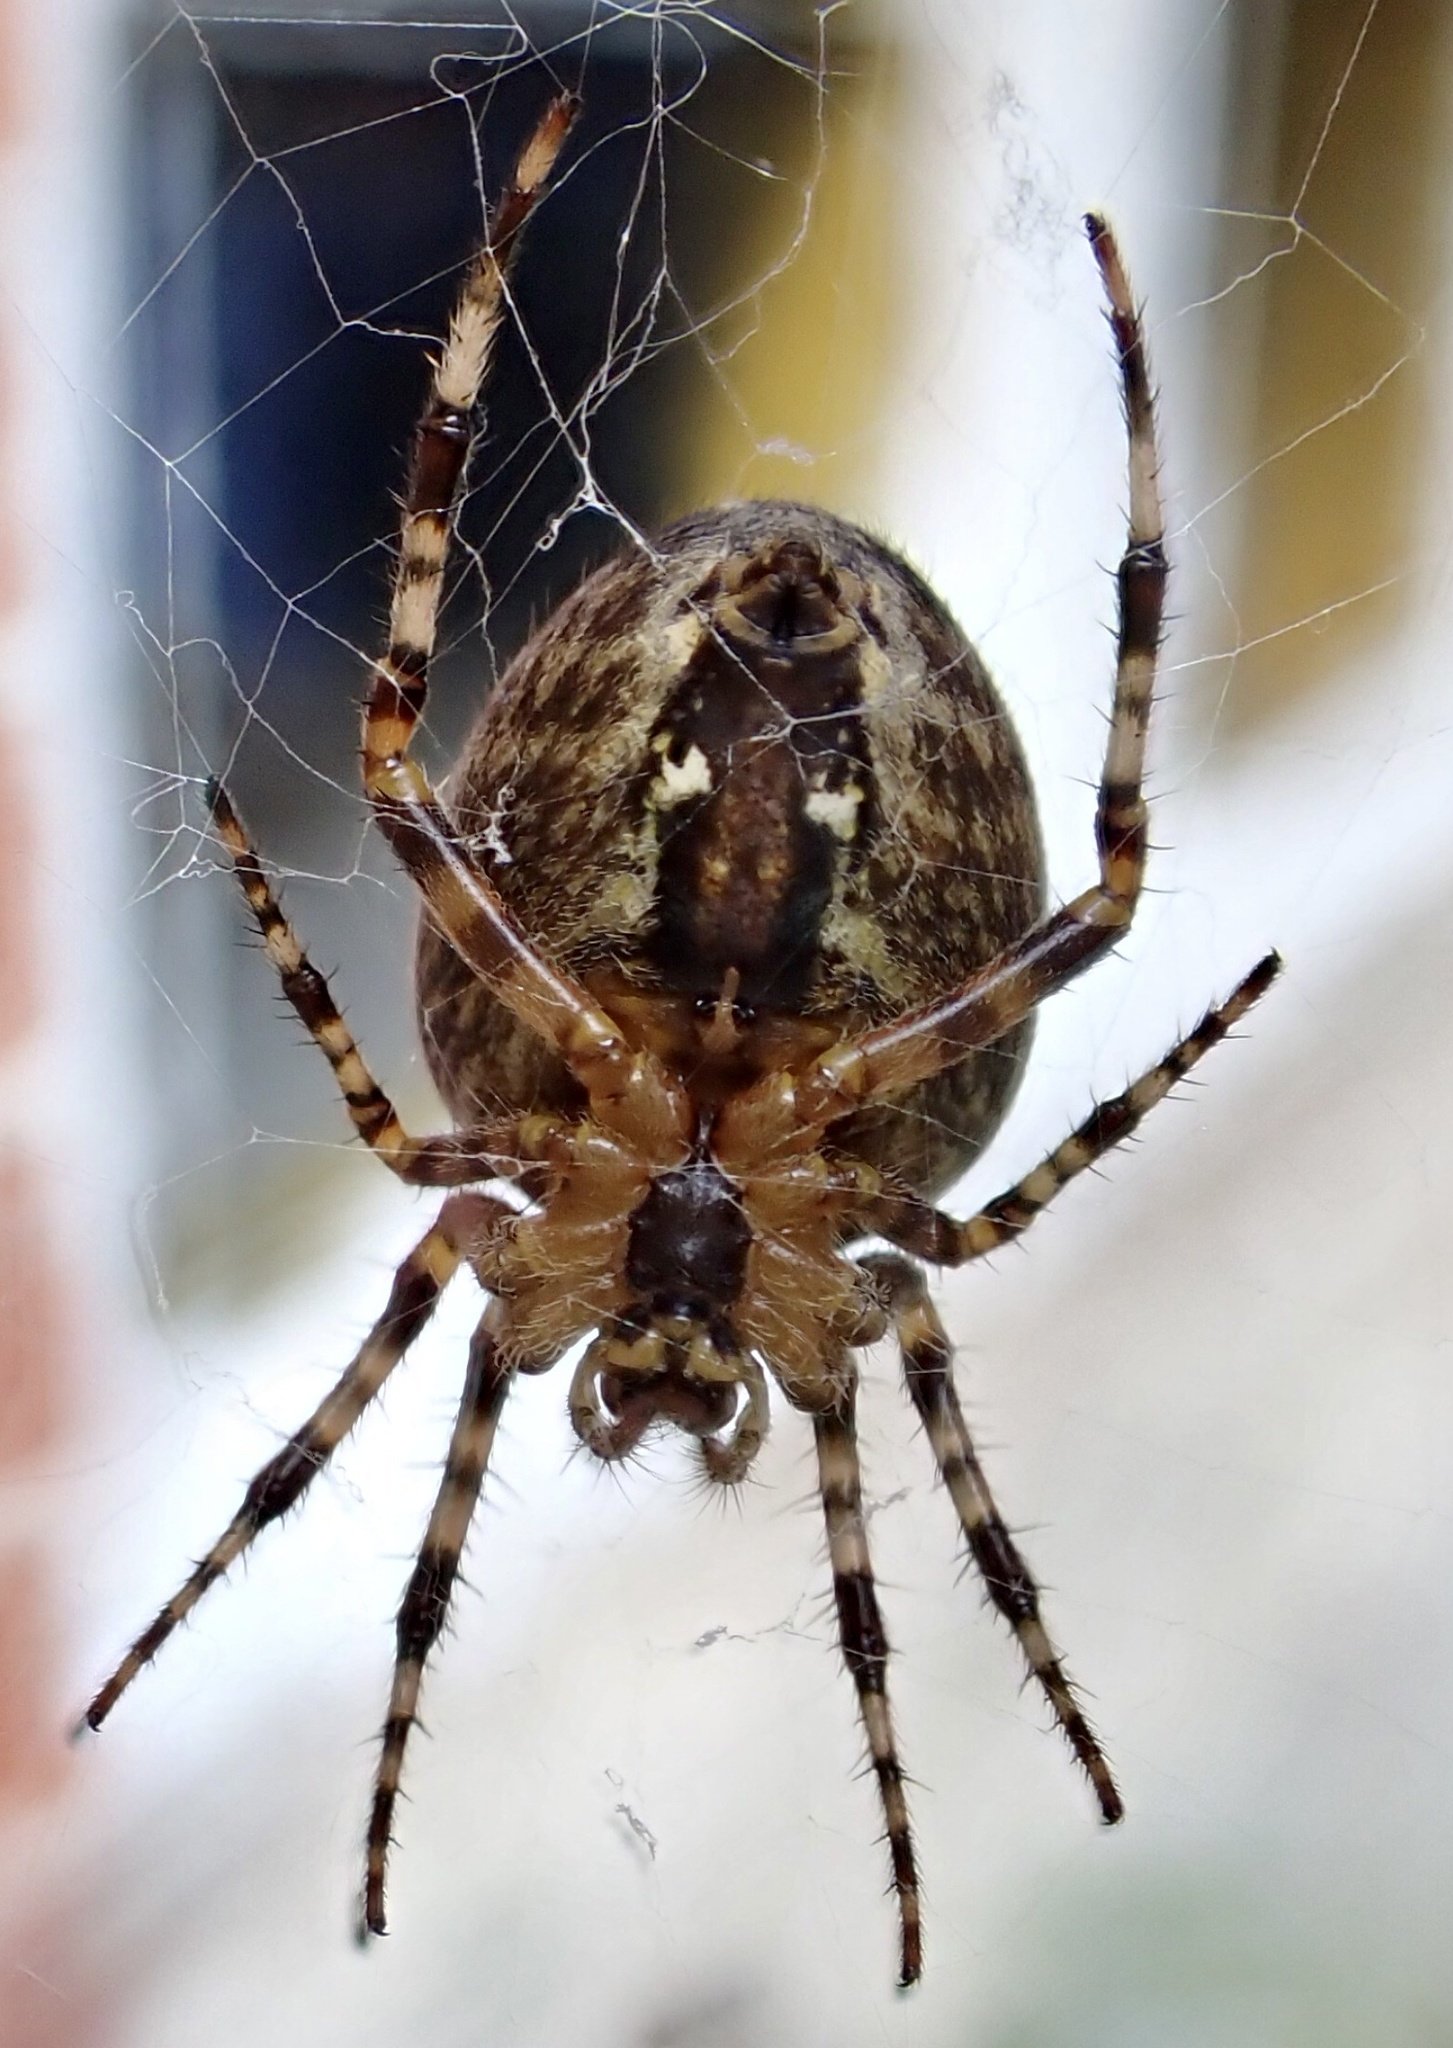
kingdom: Animalia
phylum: Arthropoda
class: Arachnida
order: Araneae
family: Araneidae
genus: Araneus
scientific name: Araneus diadematus
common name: Cross orbweaver
